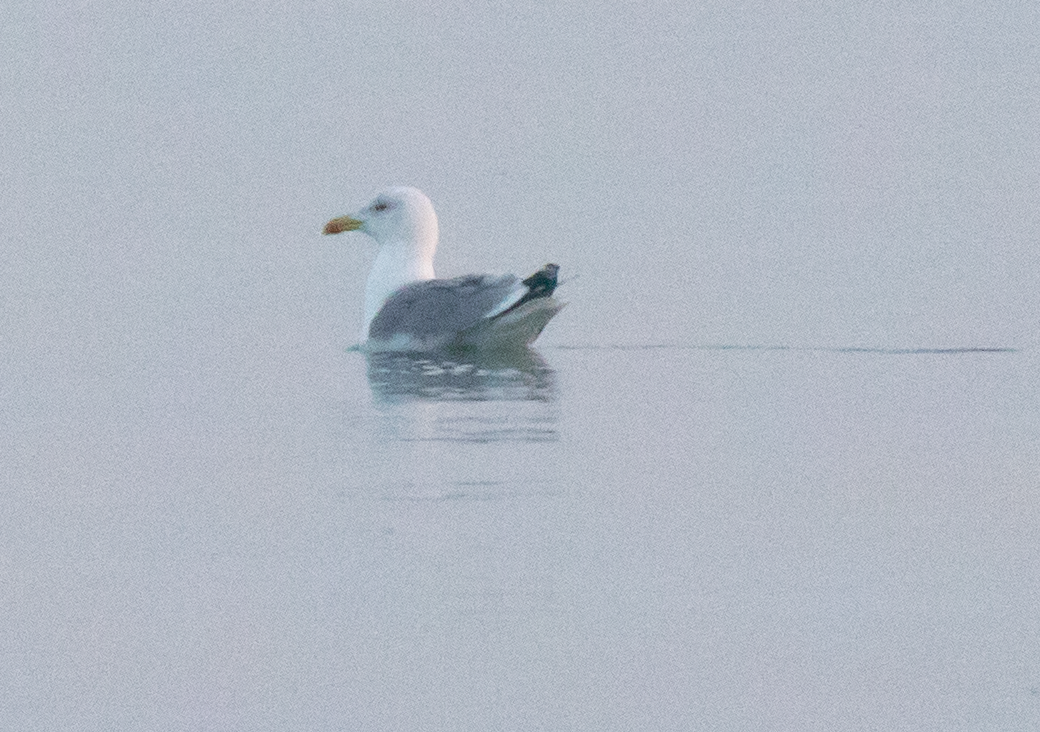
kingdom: Animalia
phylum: Chordata
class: Aves
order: Charadriiformes
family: Laridae
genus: Larus
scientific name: Larus michahellis
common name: Yellow-legged gull
